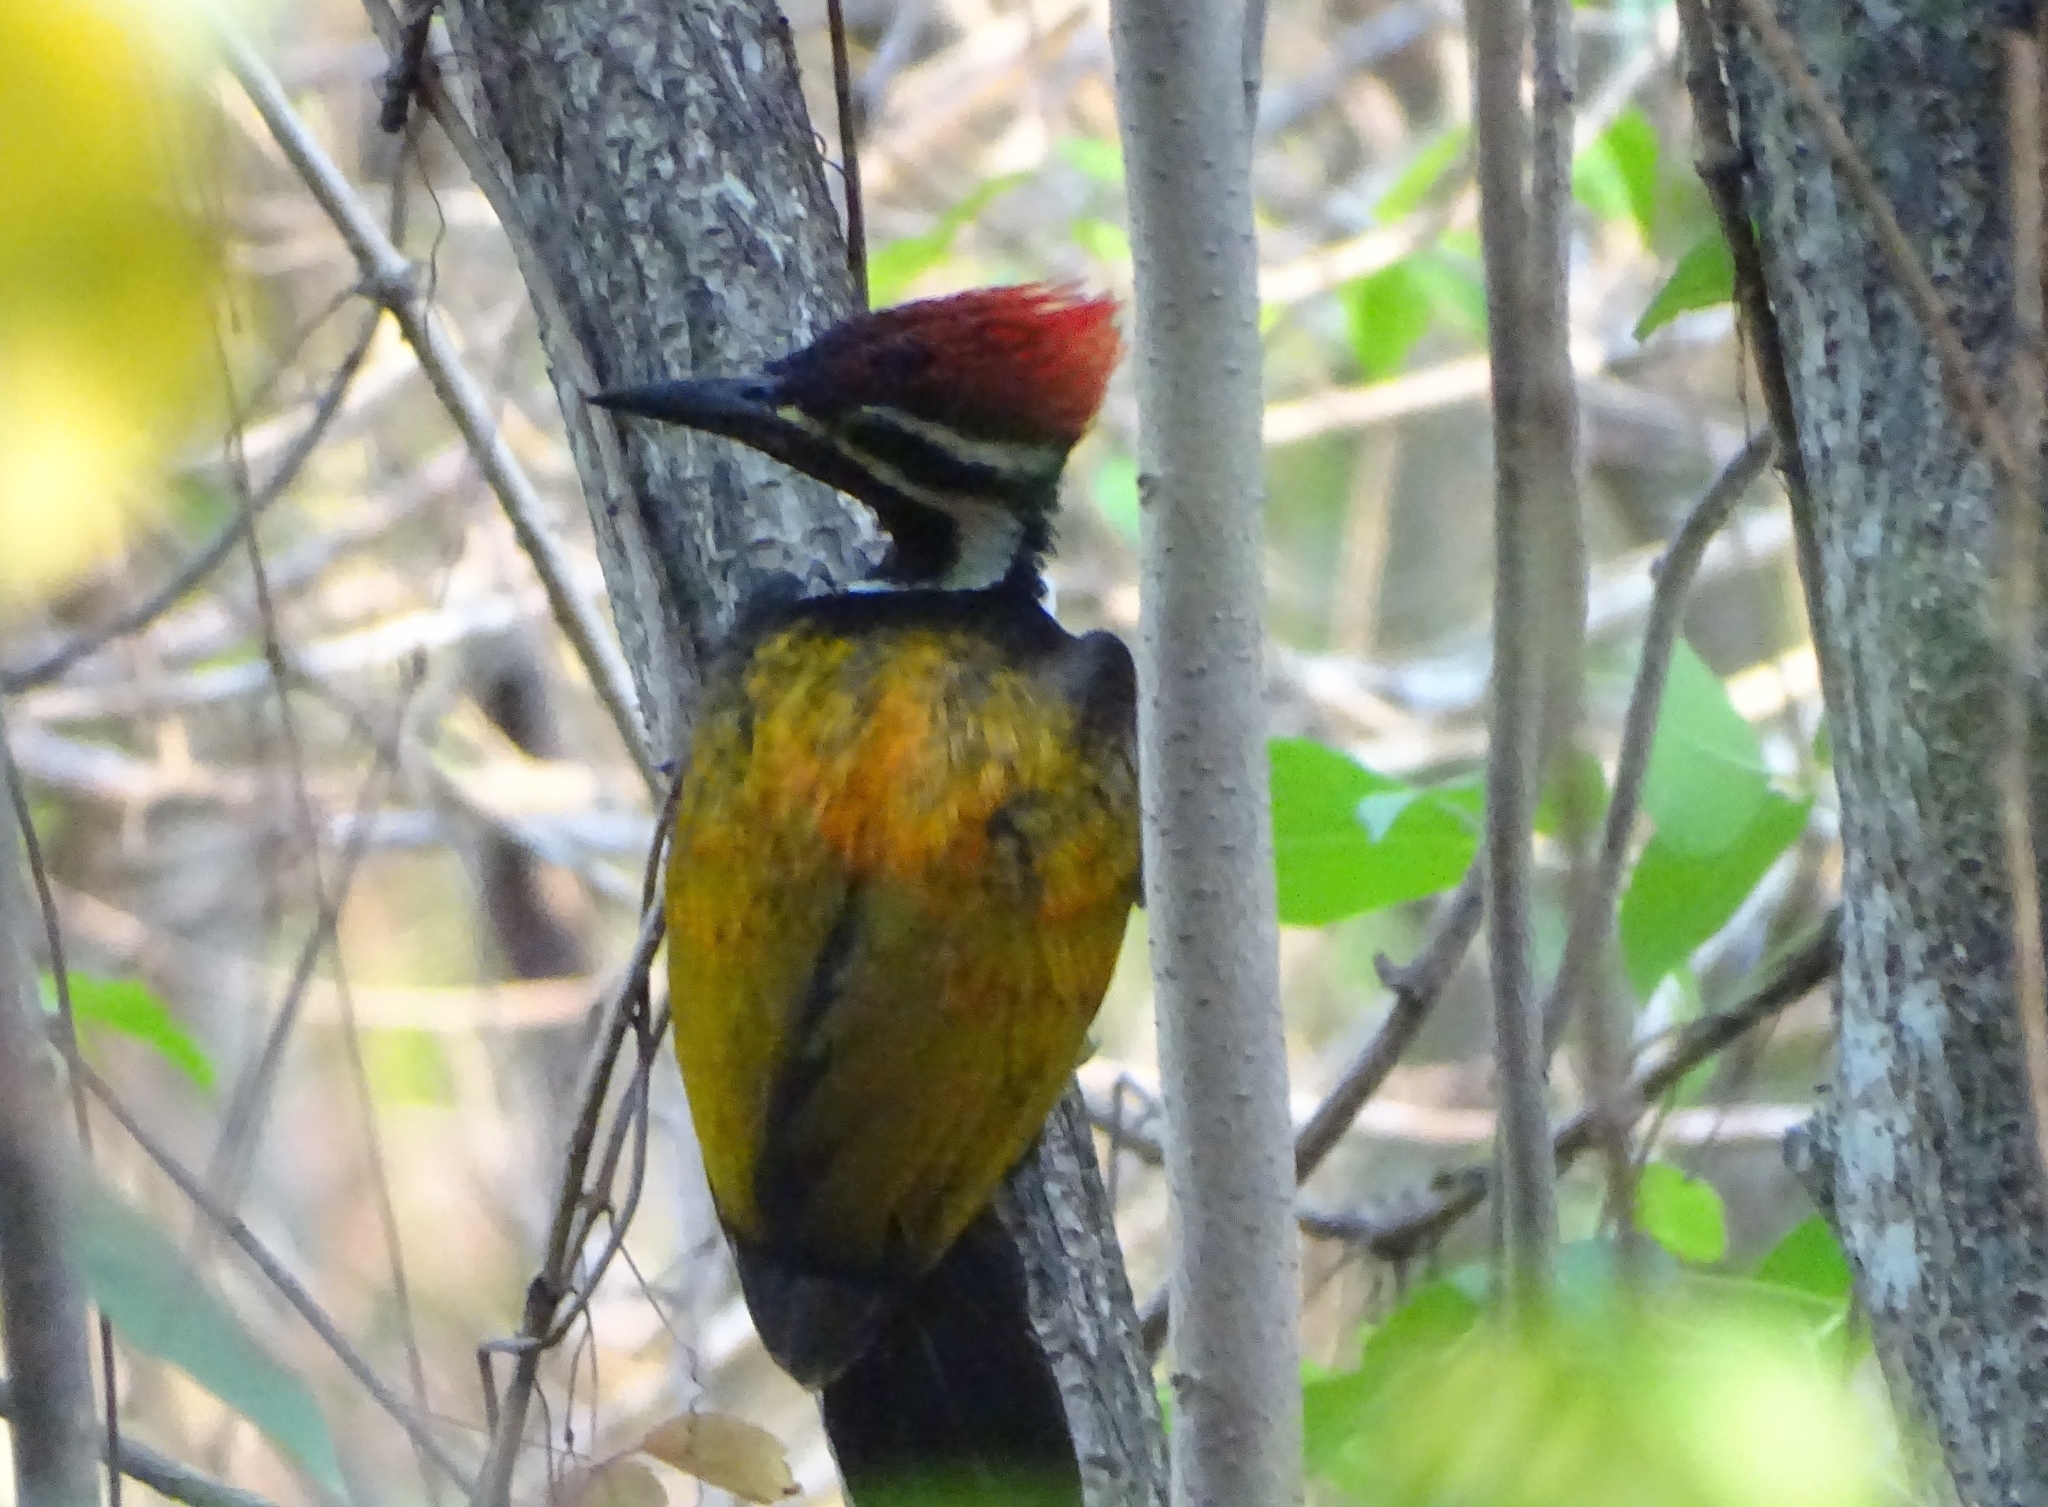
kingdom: Animalia
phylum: Chordata
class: Aves
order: Piciformes
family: Picidae
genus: Dinopium
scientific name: Dinopium benghalense
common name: Black-rumped flameback
